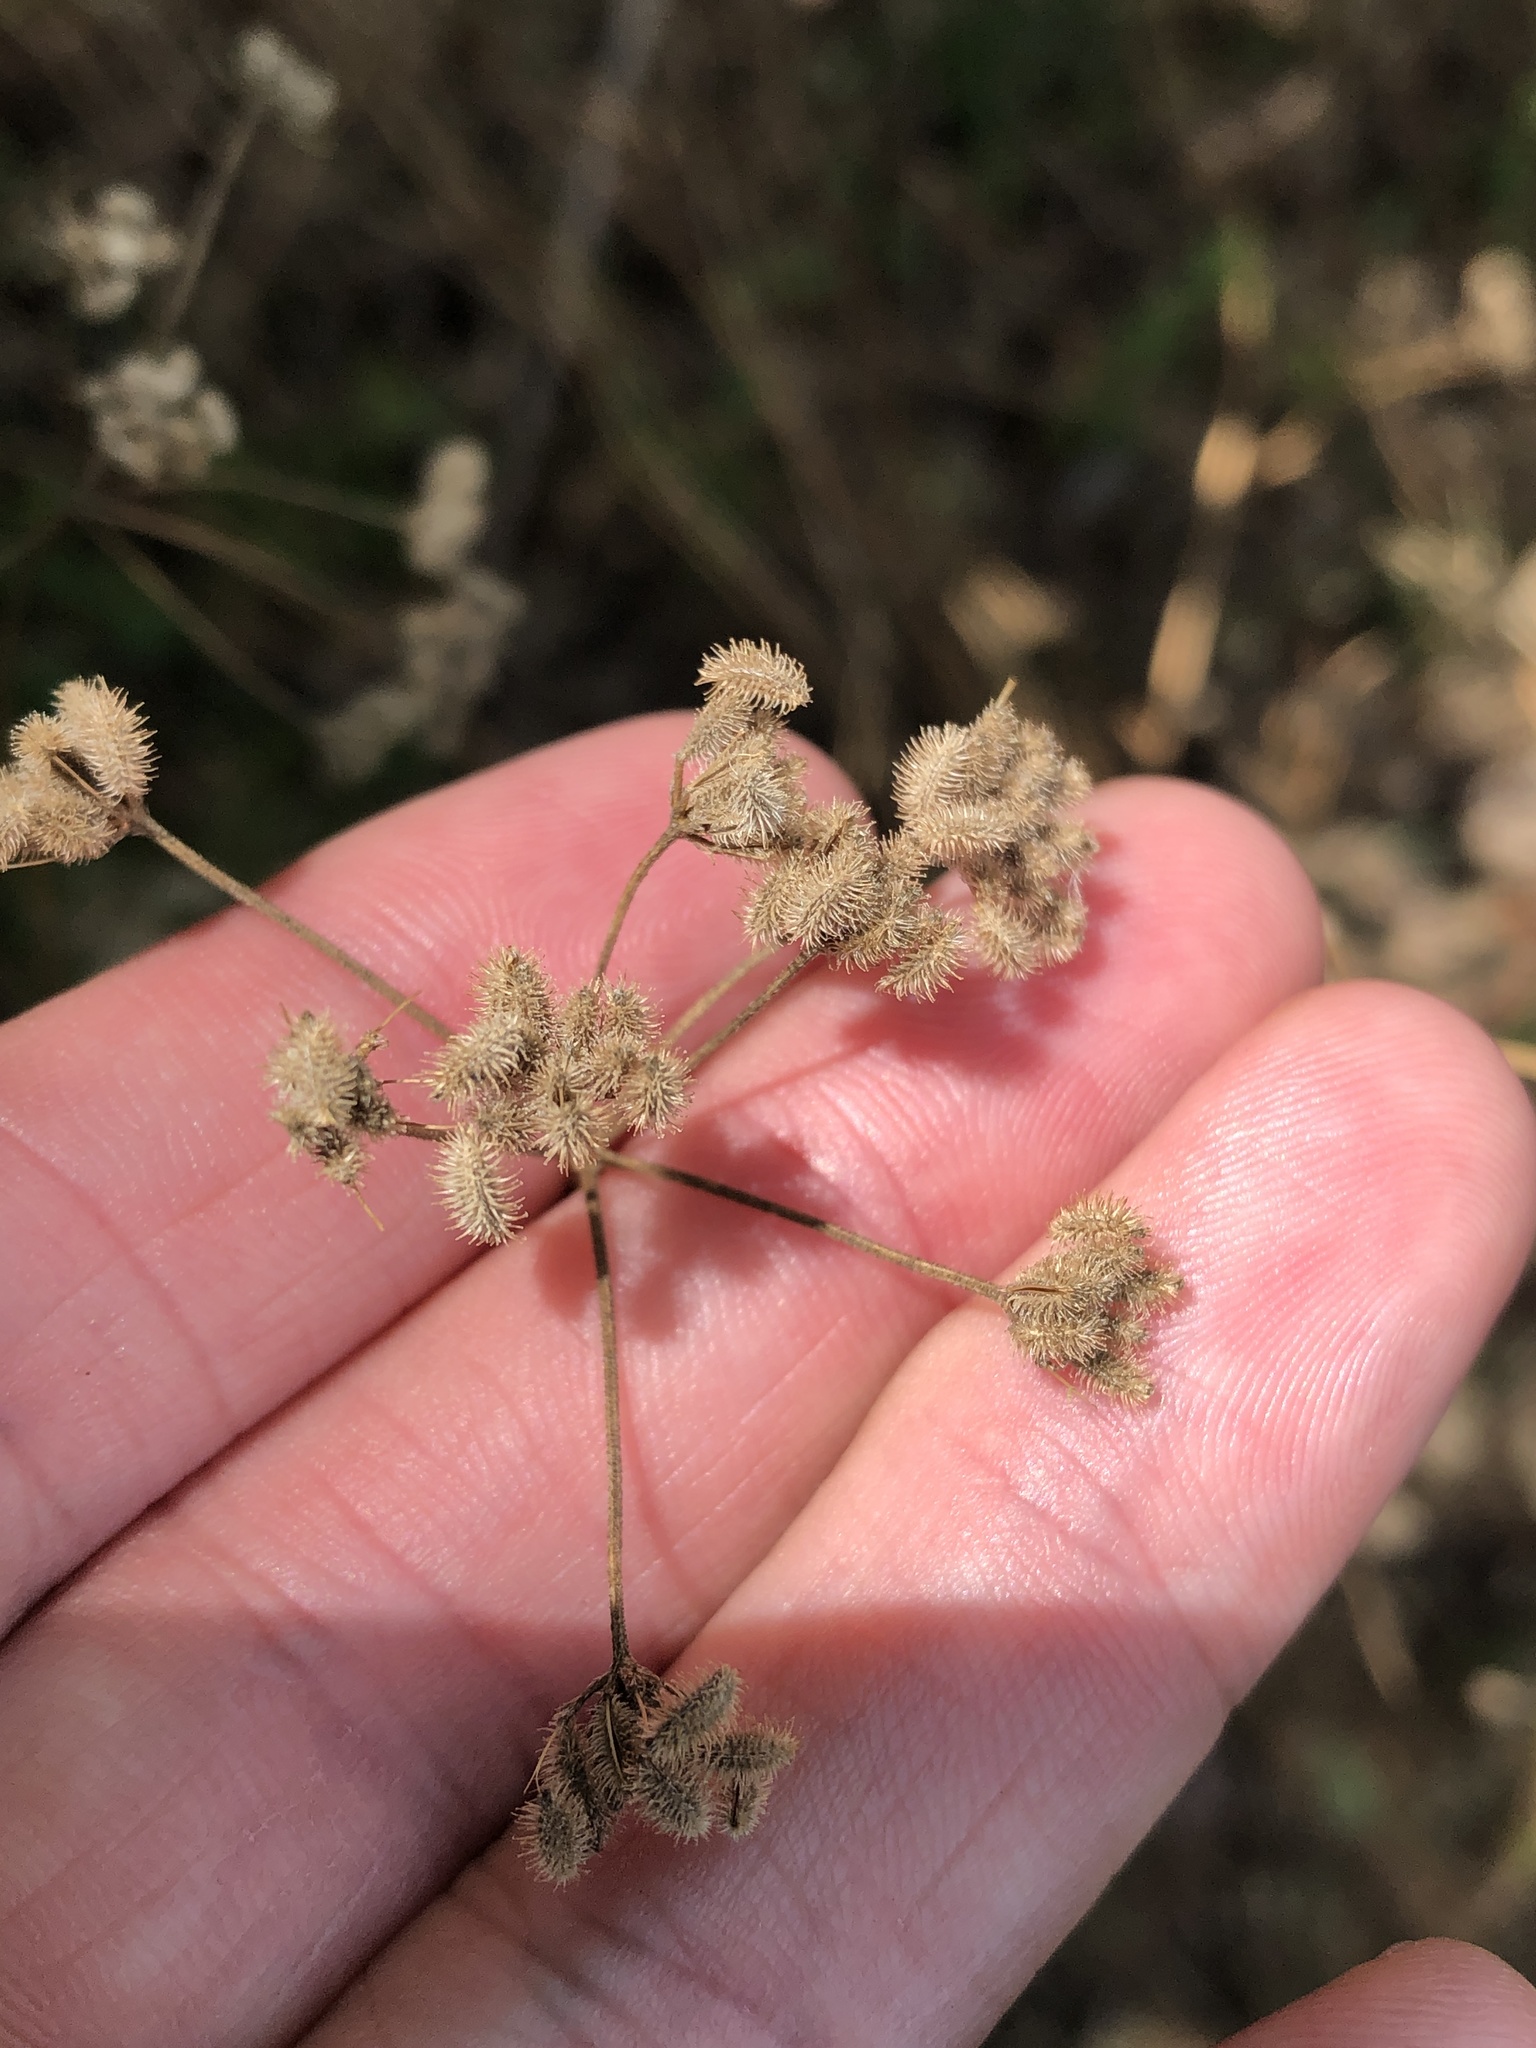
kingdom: Plantae
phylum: Tracheophyta
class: Magnoliopsida
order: Apiales
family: Apiaceae
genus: Torilis
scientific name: Torilis arvensis
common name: Spreading hedge-parsley
